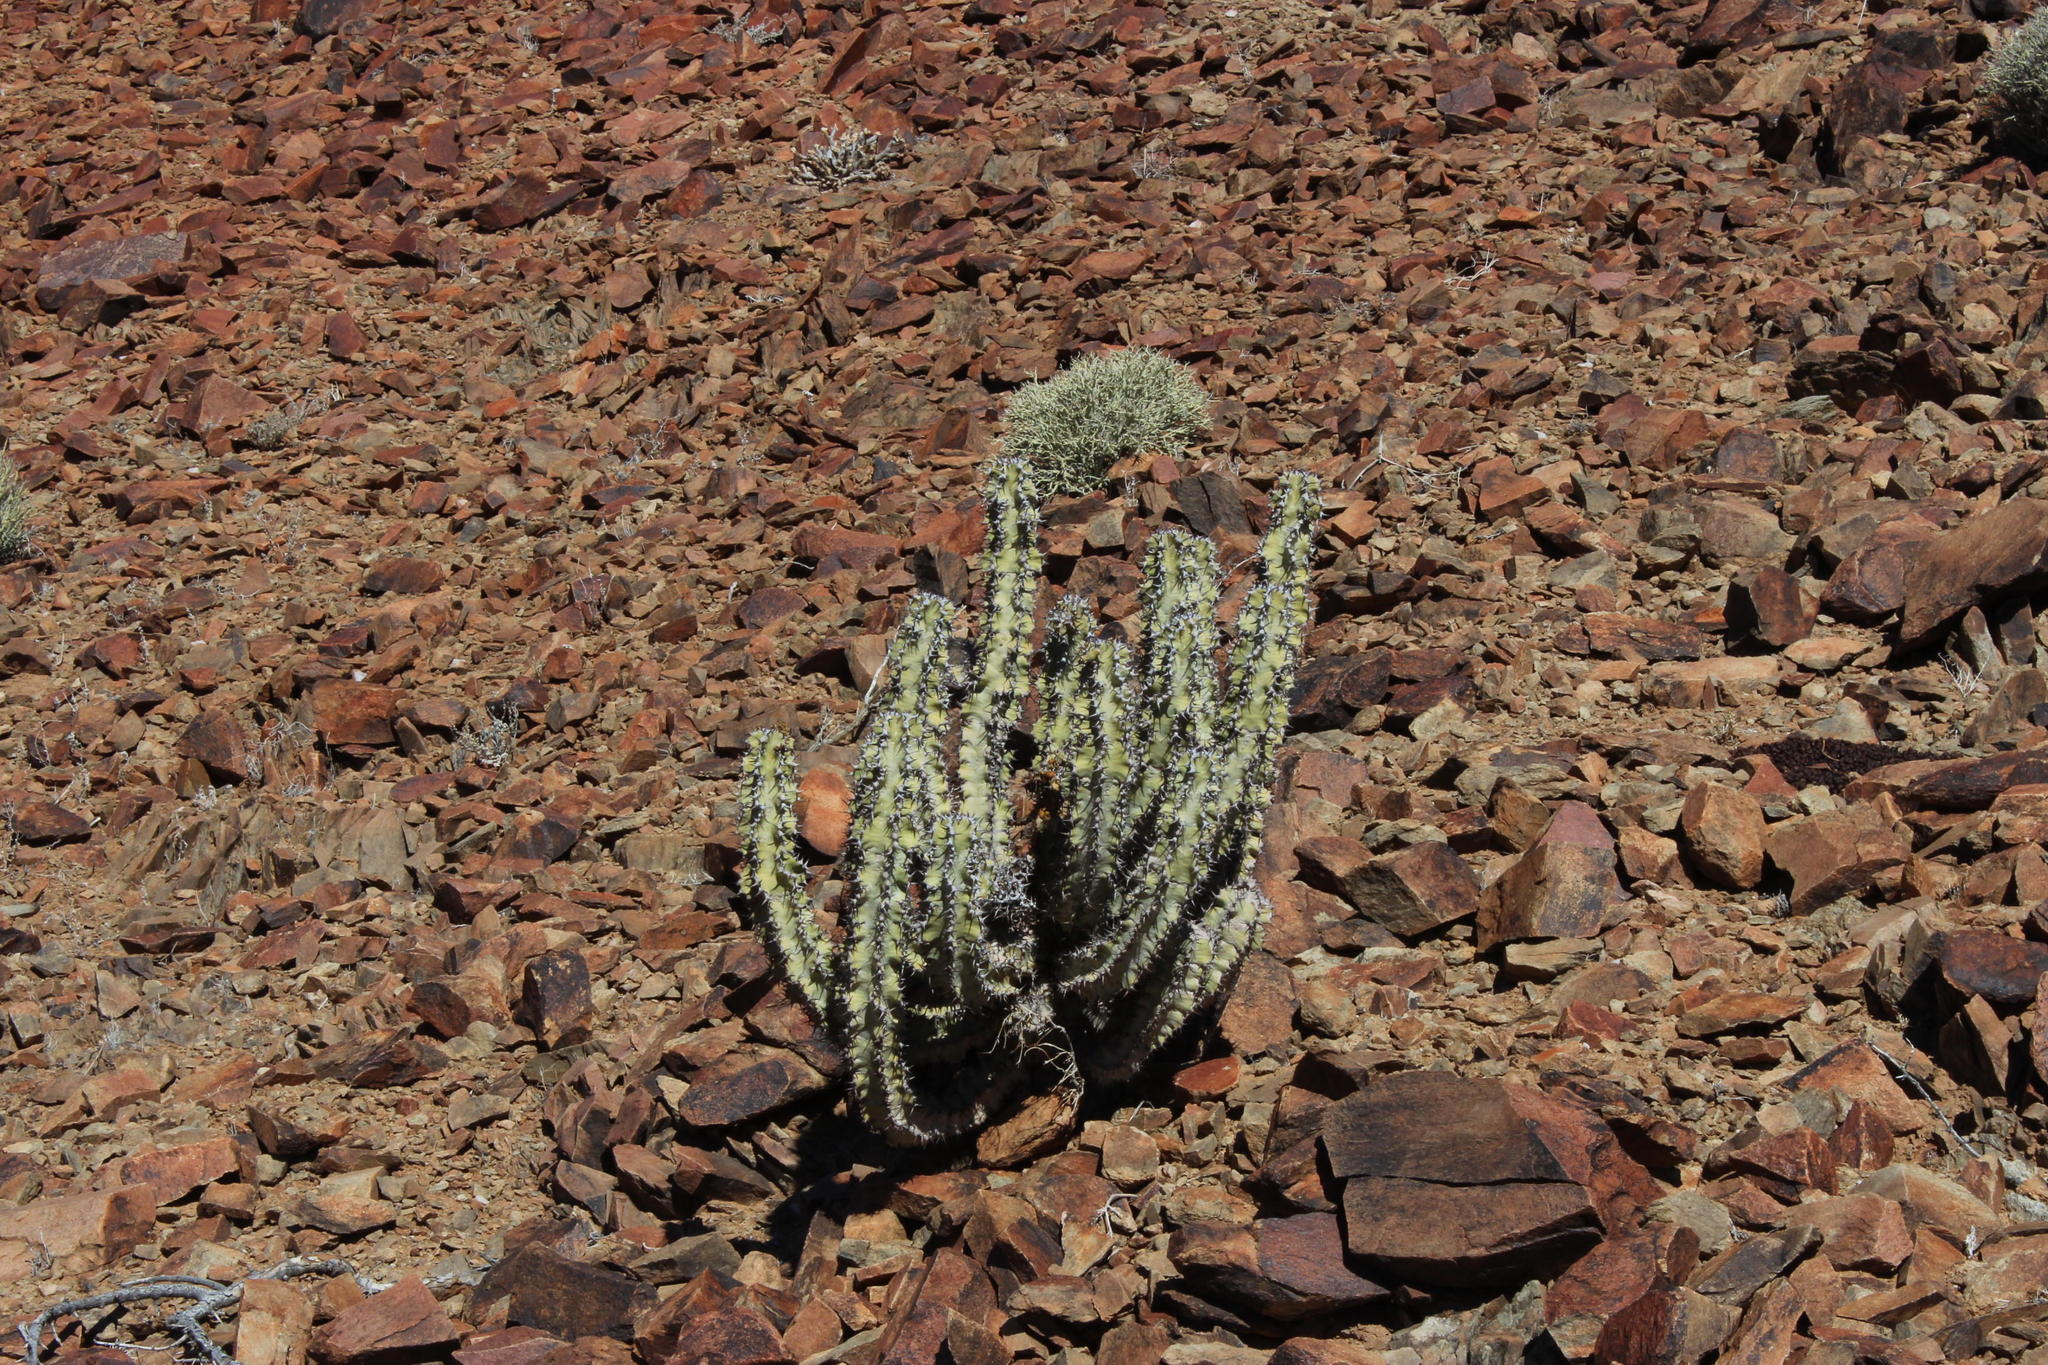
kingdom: Plantae
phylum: Tracheophyta
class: Magnoliopsida
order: Malpighiales
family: Euphorbiaceae
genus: Euphorbia
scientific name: Euphorbia virosa
